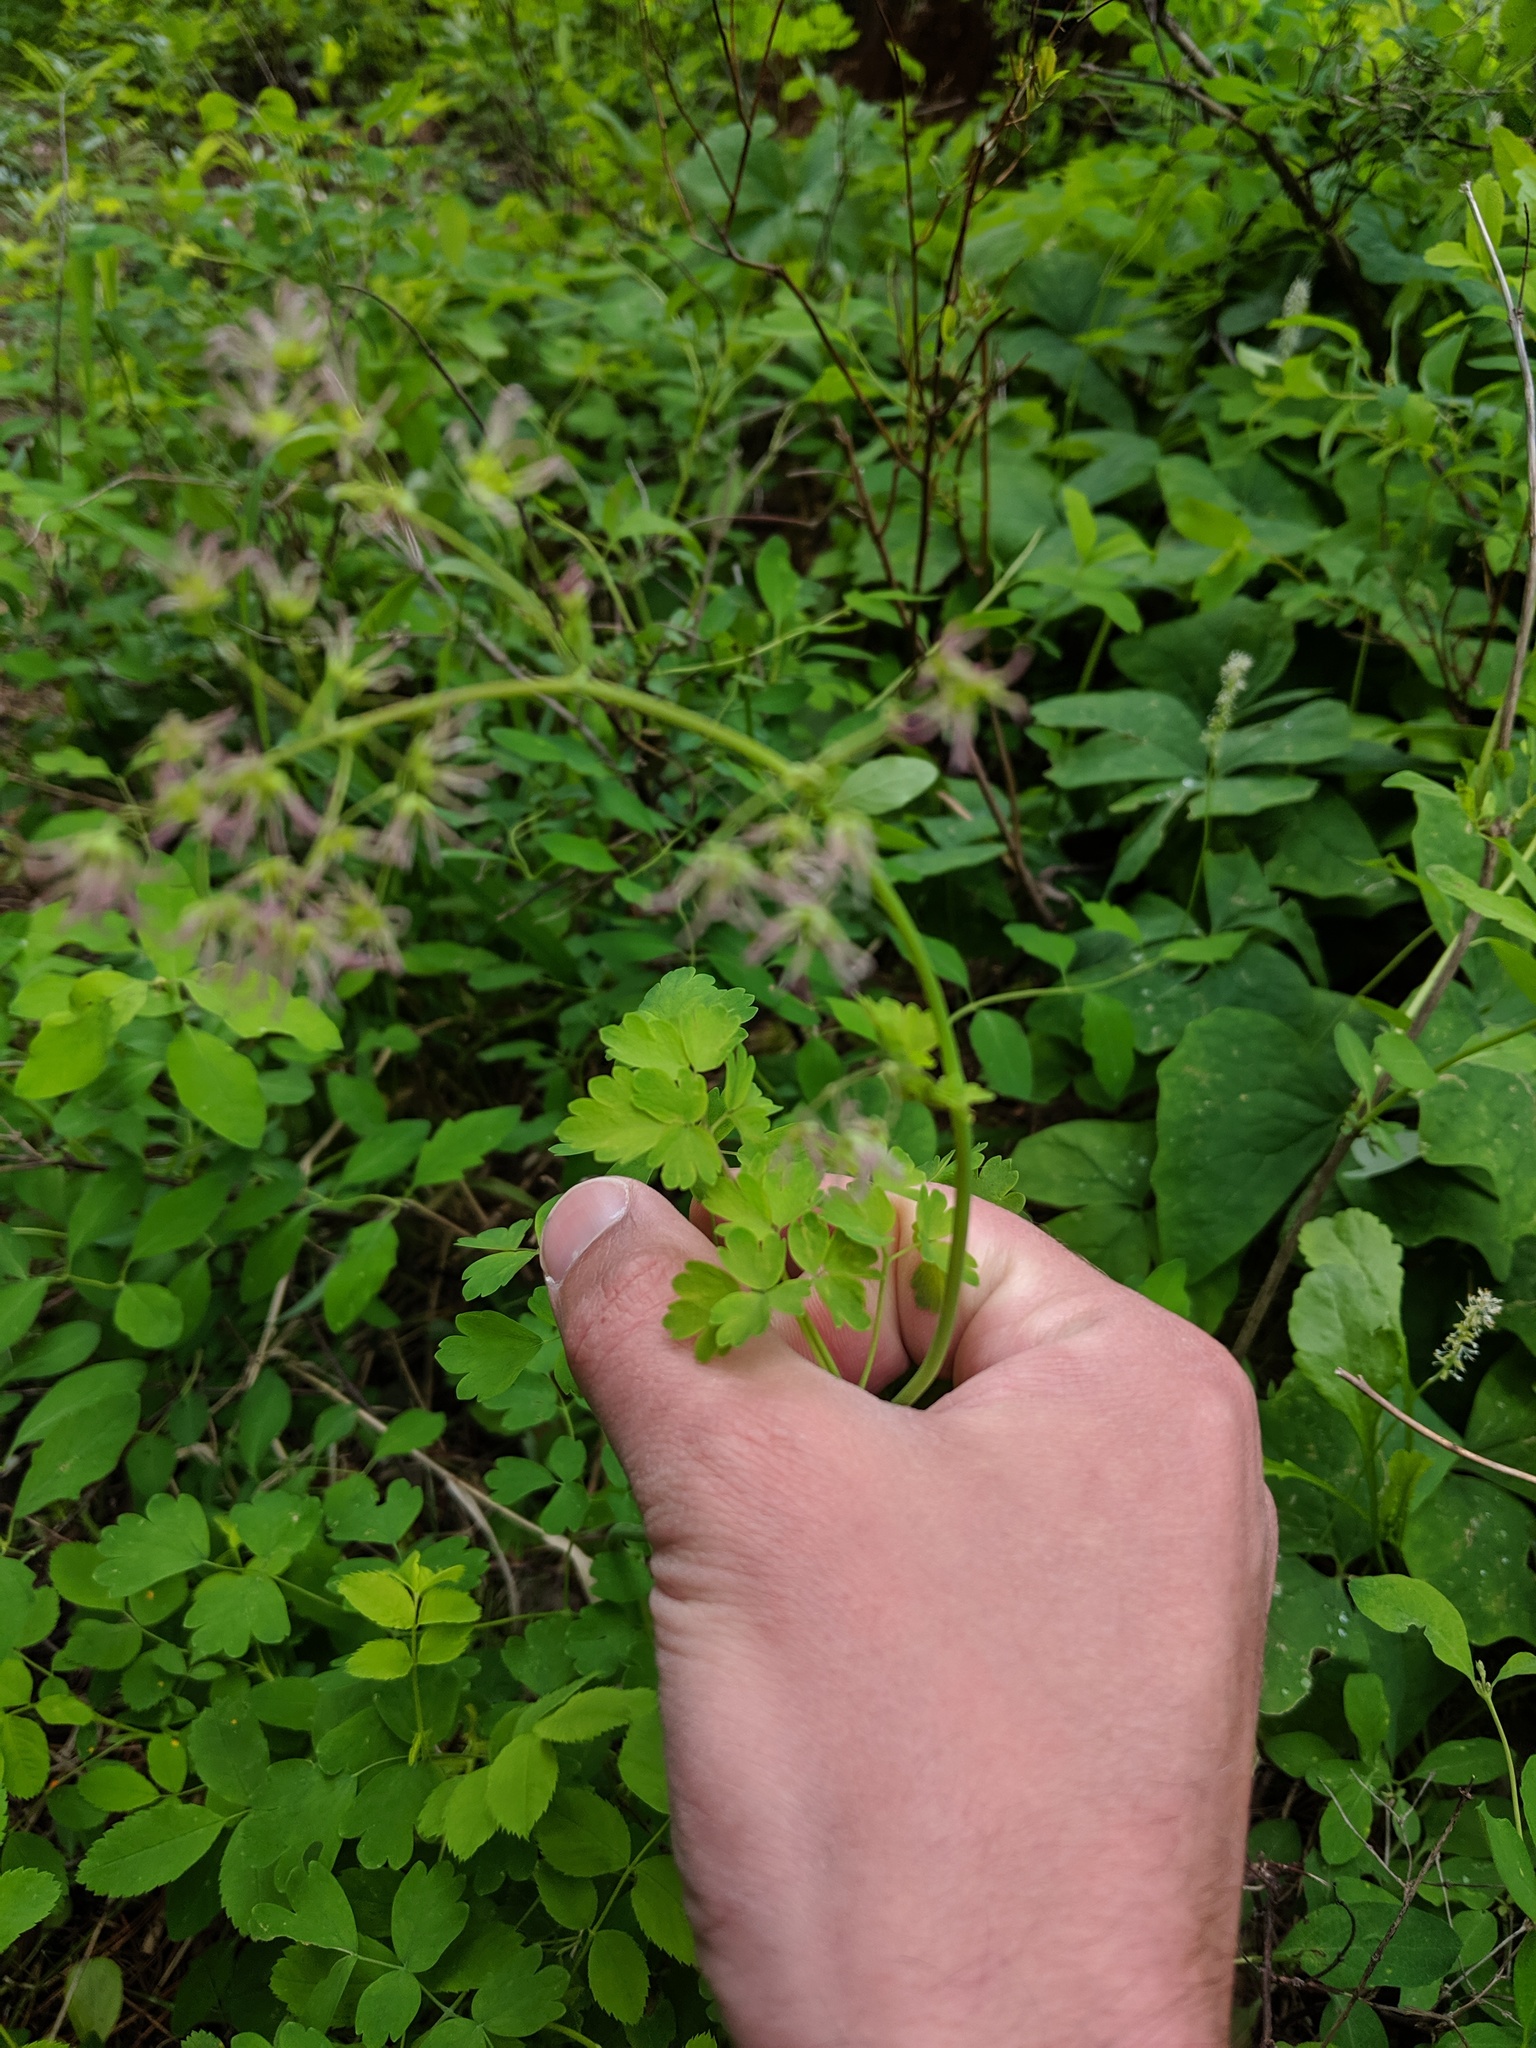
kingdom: Plantae
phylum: Tracheophyta
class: Magnoliopsida
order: Ranunculales
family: Ranunculaceae
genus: Thalictrum
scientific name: Thalictrum occidentale
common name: Western meadow-rue
